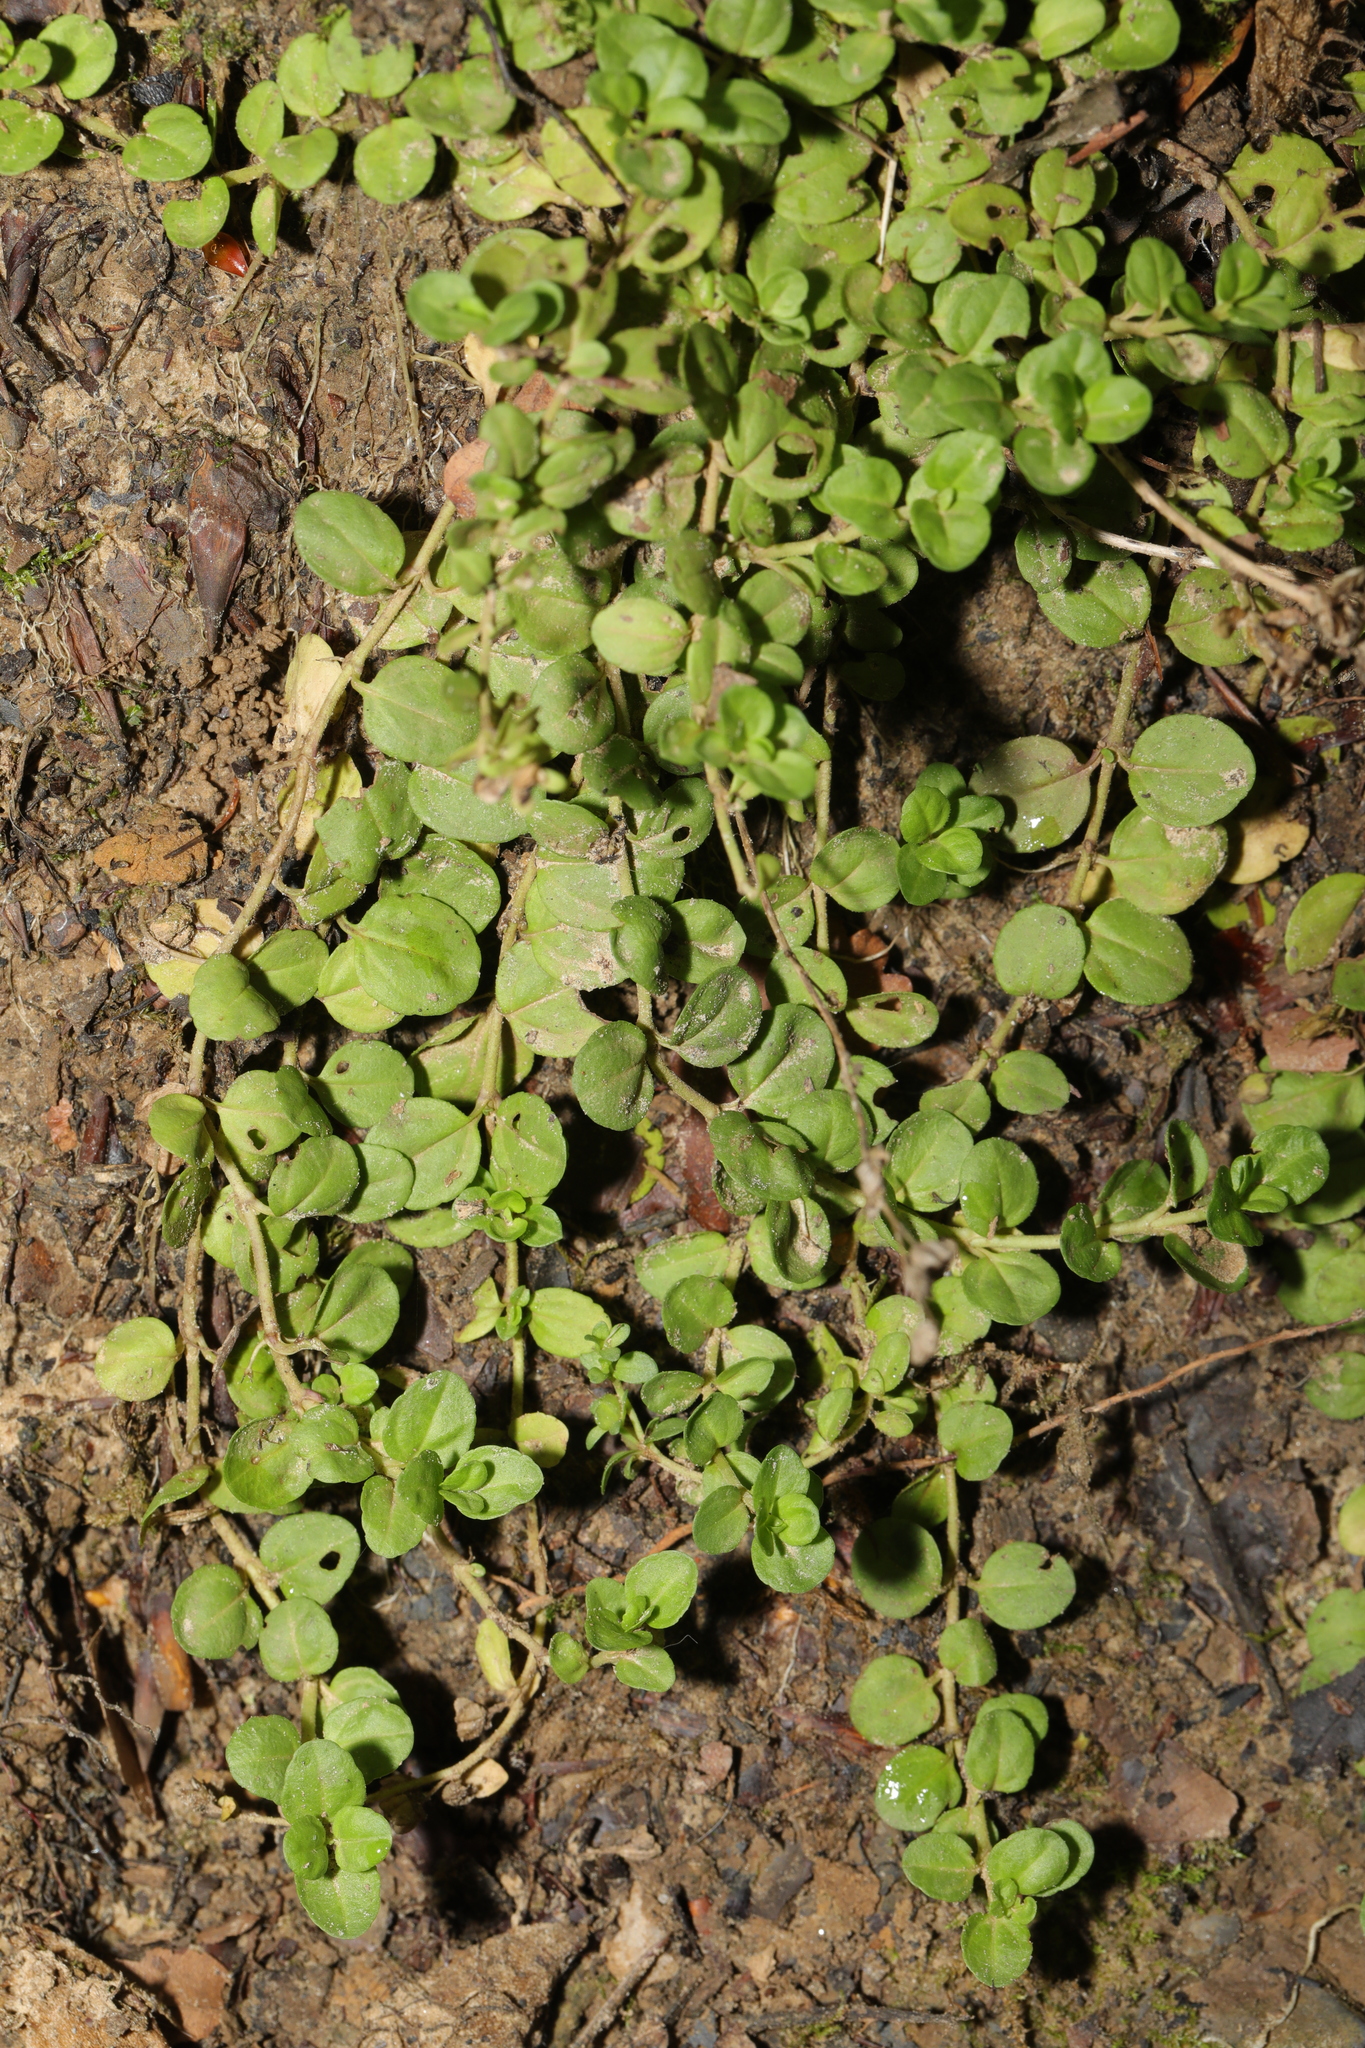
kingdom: Plantae
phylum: Tracheophyta
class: Magnoliopsida
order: Lamiales
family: Plantaginaceae
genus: Veronica
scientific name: Veronica serpyllifolia
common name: Thyme-leaved speedwell
